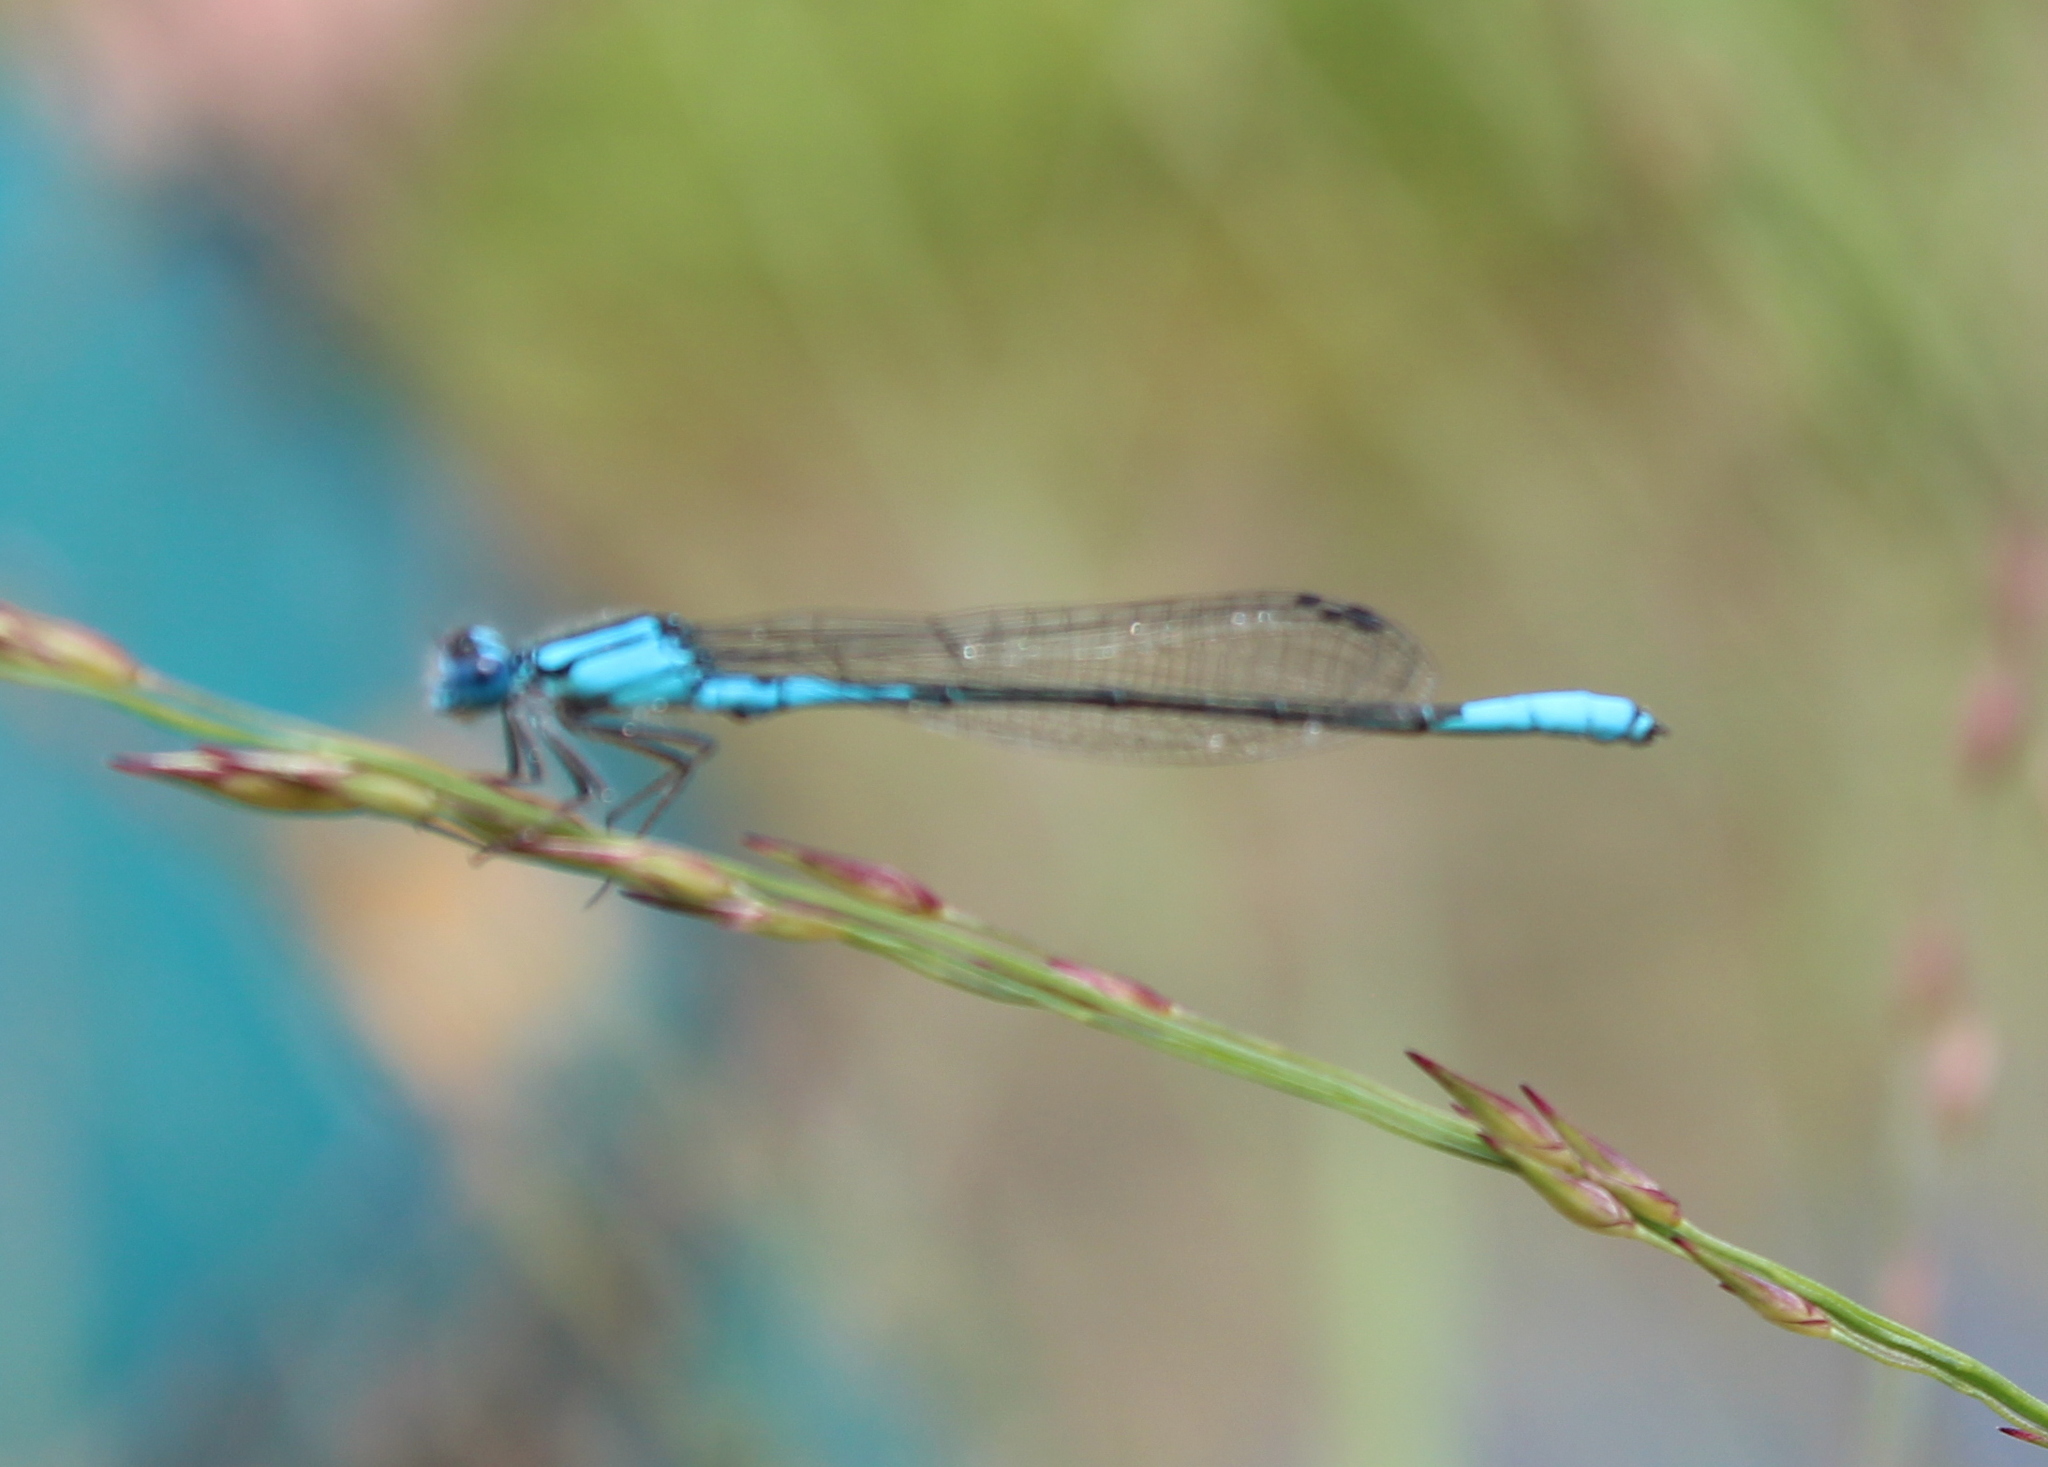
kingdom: Animalia
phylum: Arthropoda
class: Insecta
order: Odonata
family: Coenagrionidae
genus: Enallagma
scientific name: Enallagma aspersum
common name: Azure bluet
